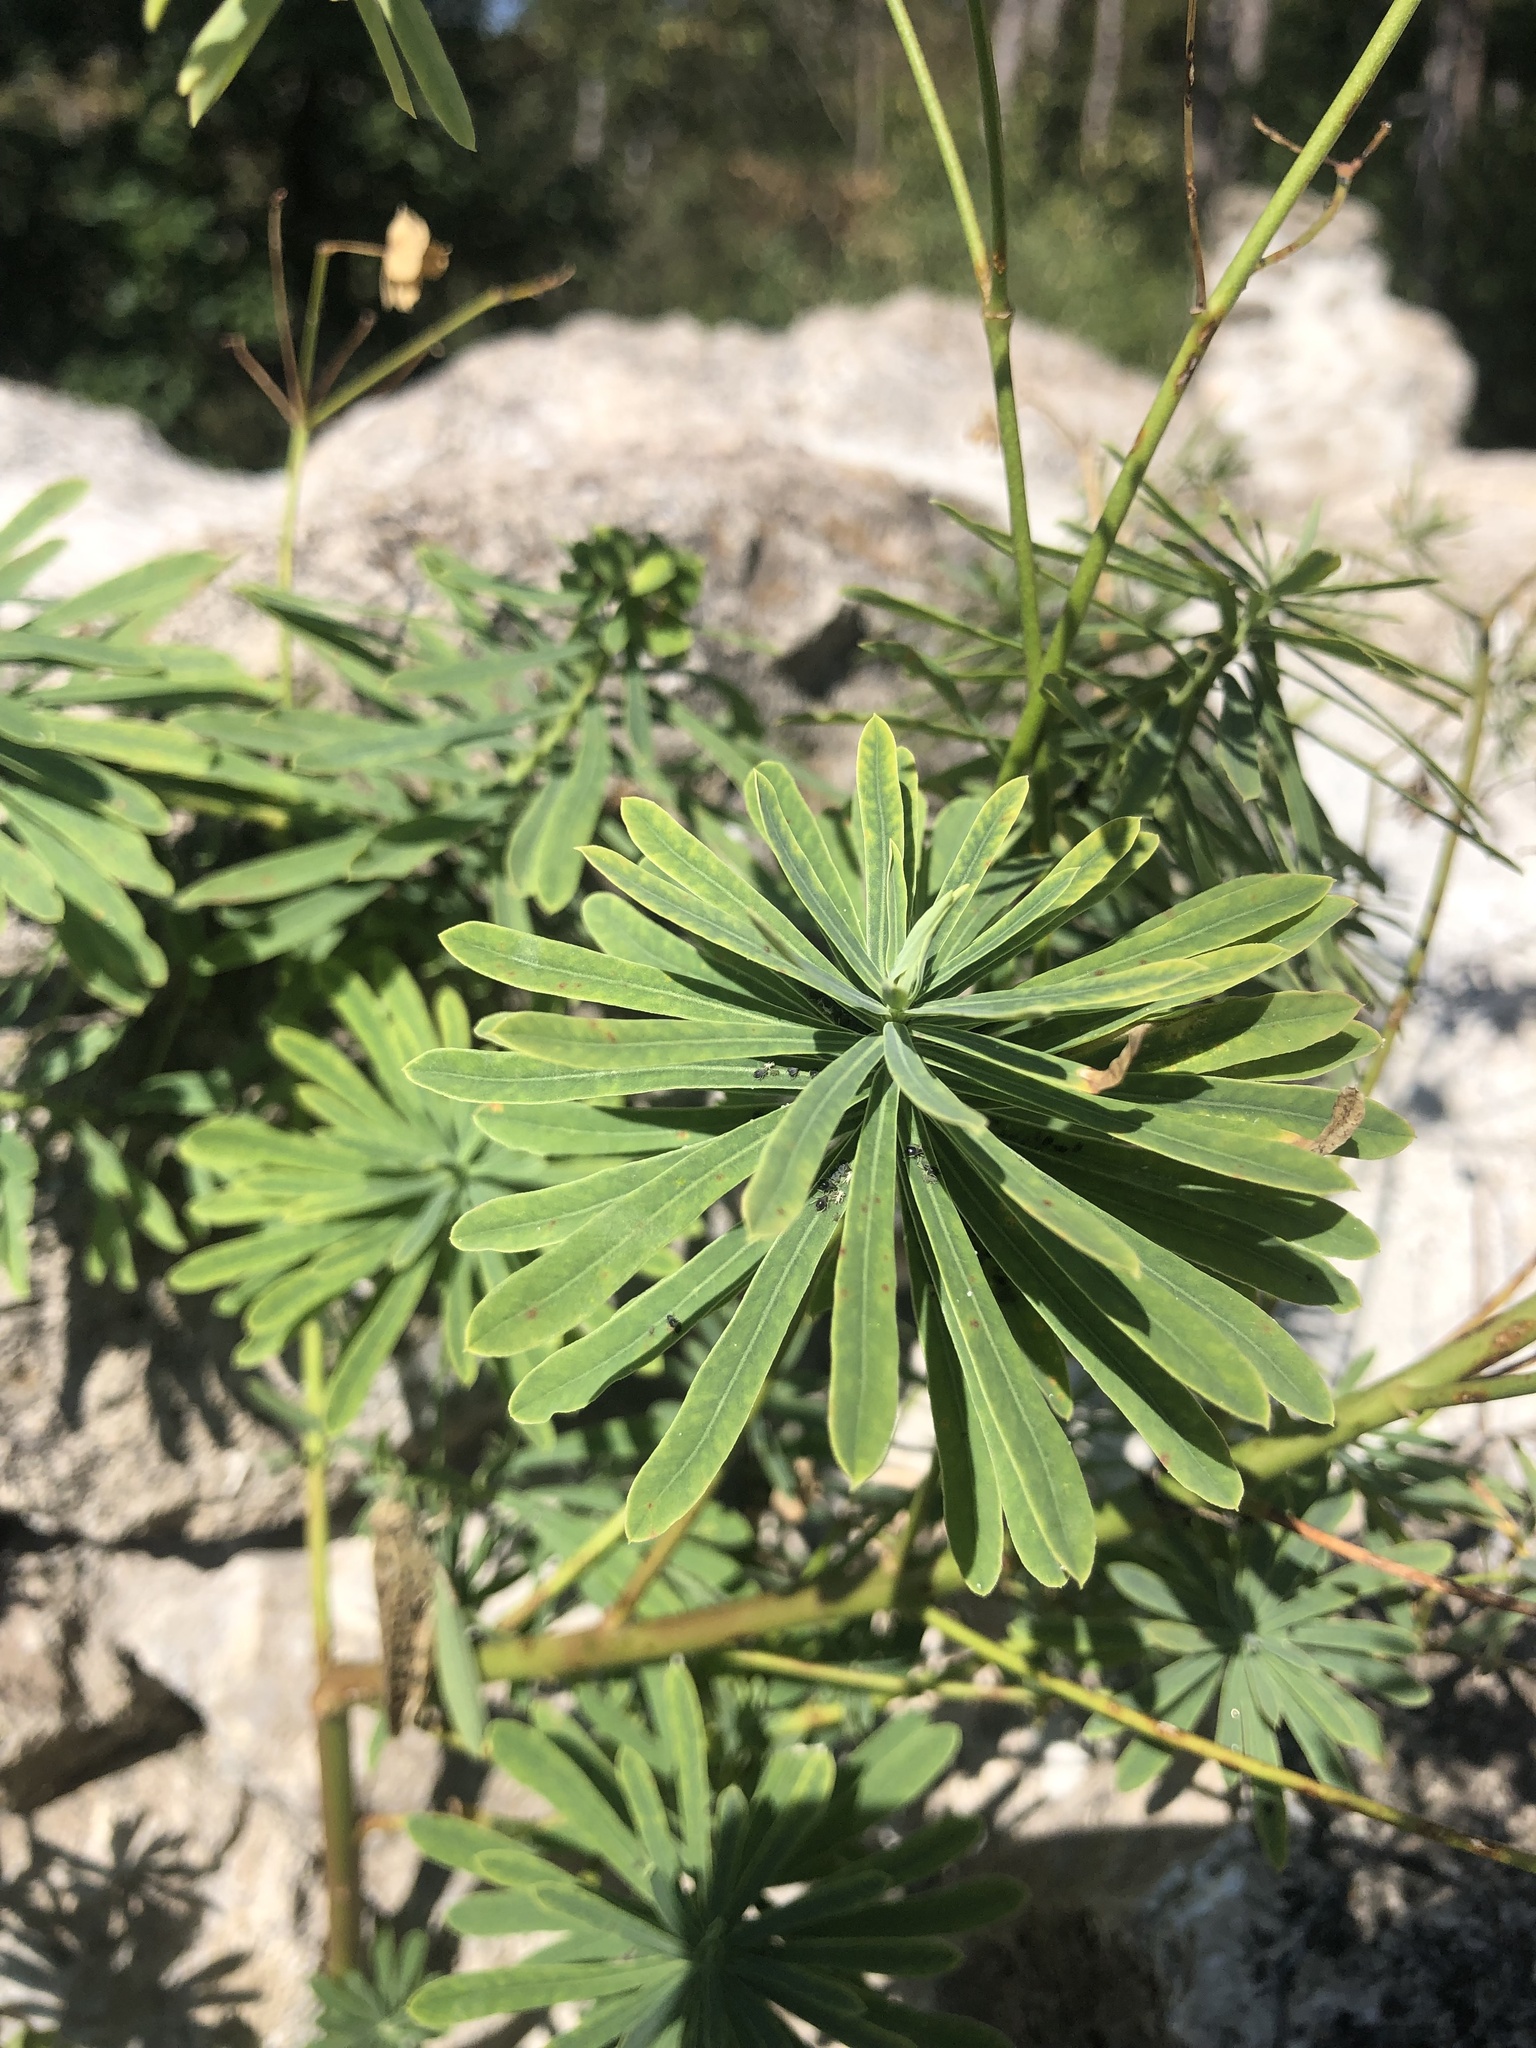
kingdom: Plantae
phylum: Tracheophyta
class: Magnoliopsida
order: Malpighiales
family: Euphorbiaceae
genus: Euphorbia
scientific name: Euphorbia esula
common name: Leafy spurge
